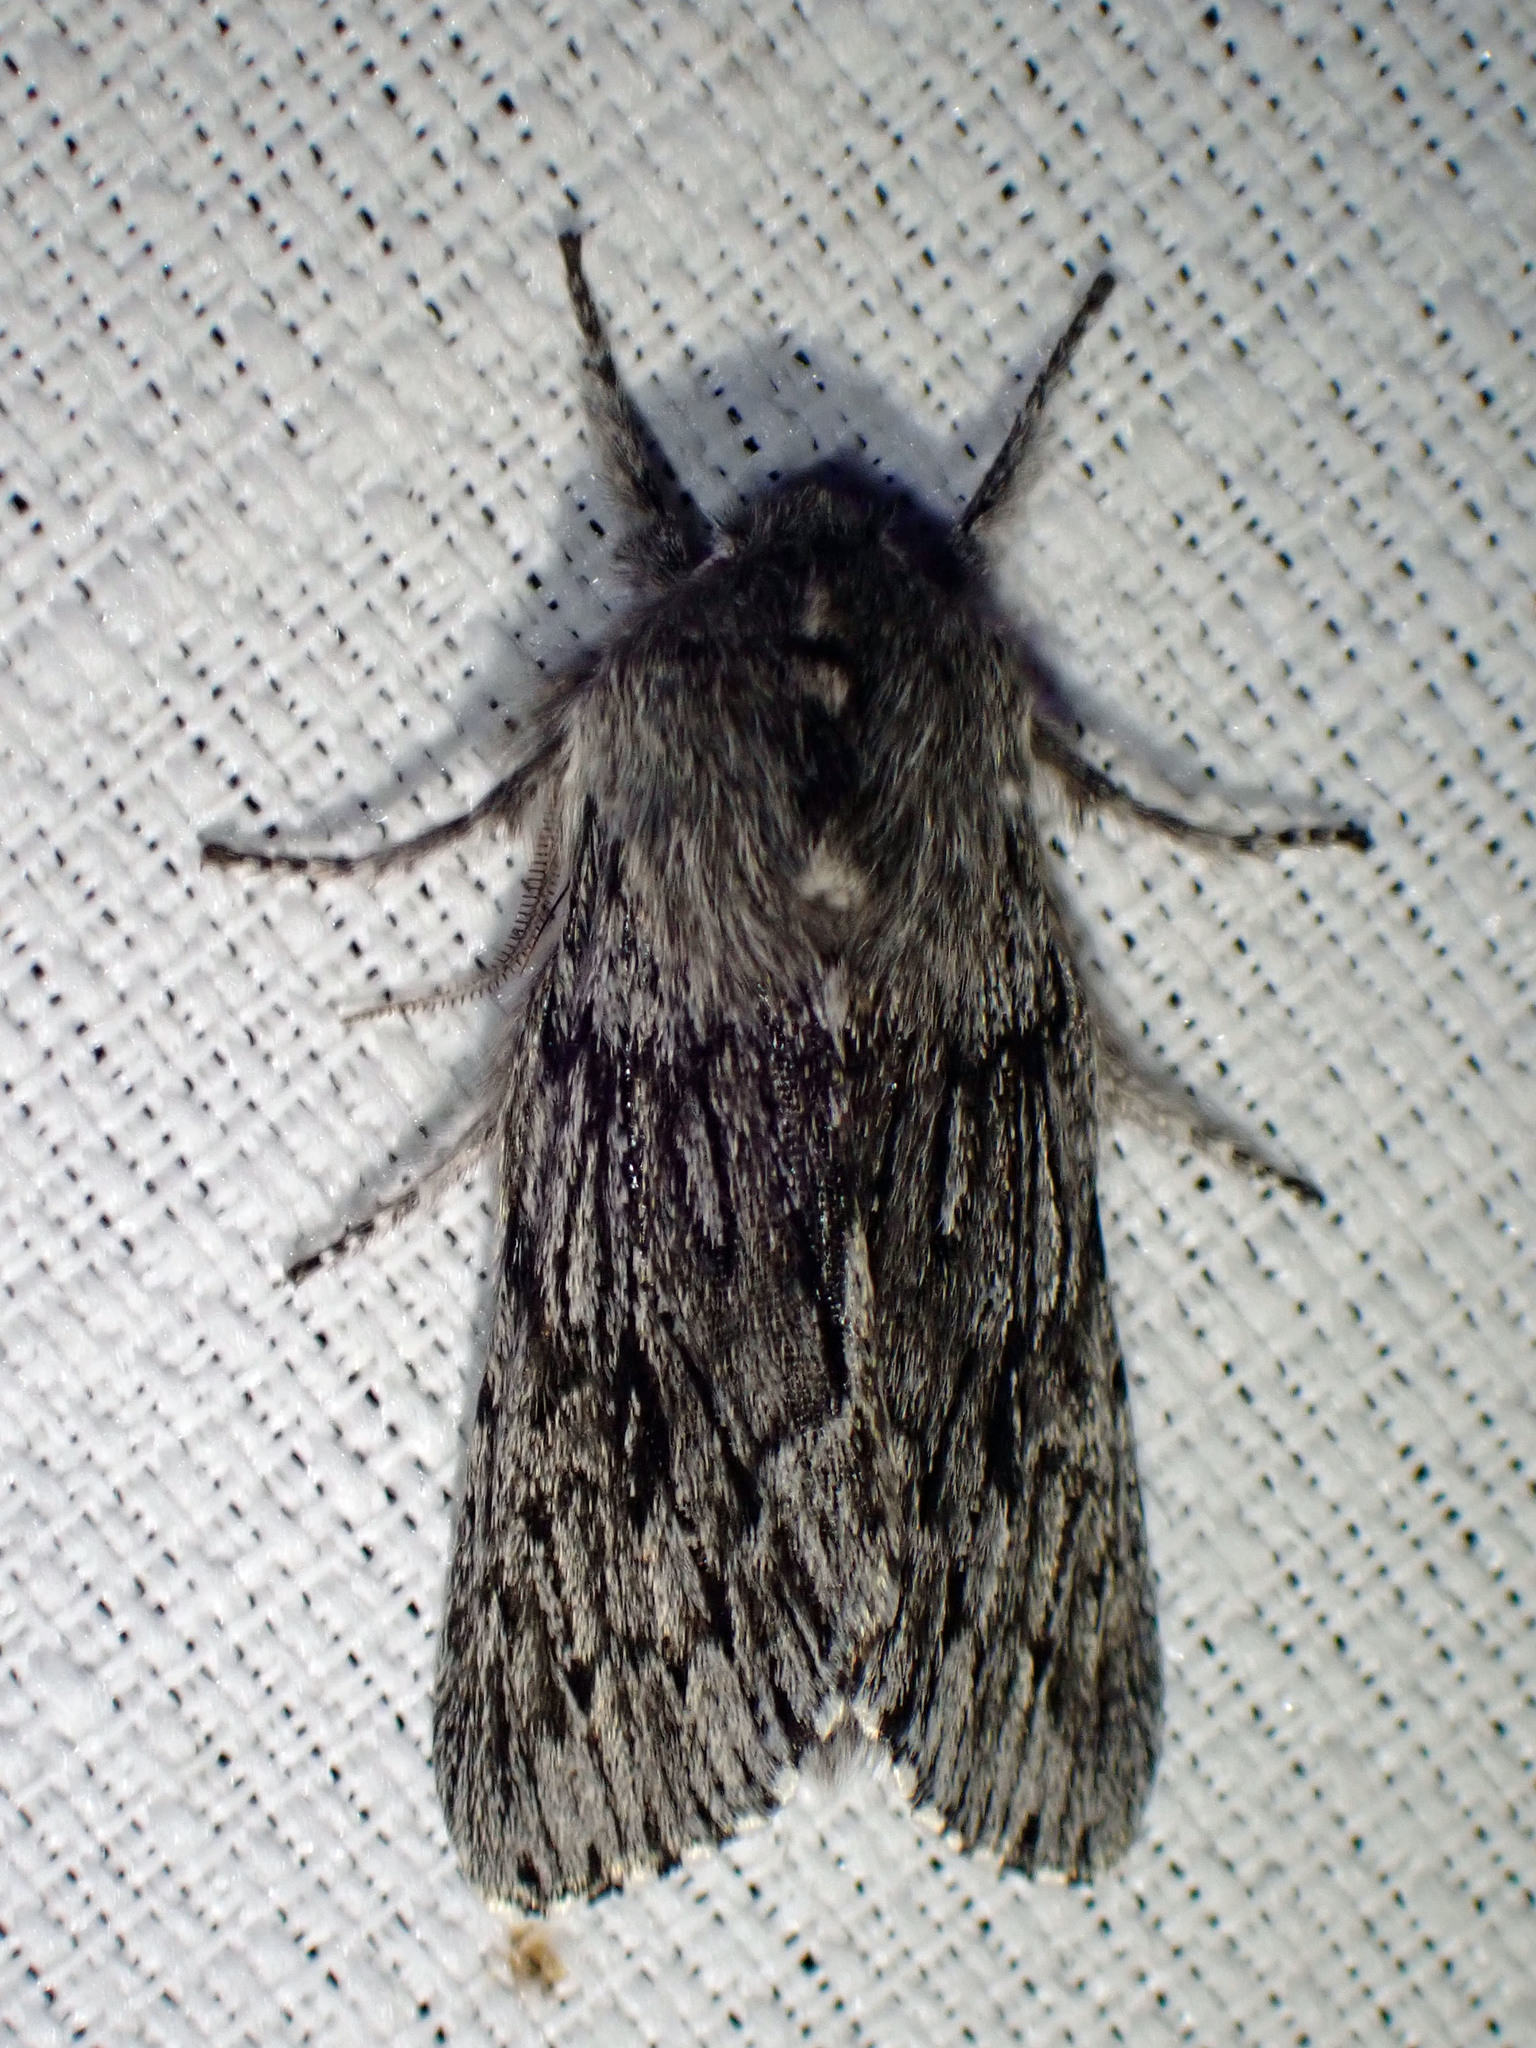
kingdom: Animalia
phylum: Arthropoda
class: Insecta
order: Lepidoptera
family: Noctuidae
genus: Brachionycha
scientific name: Brachionycha borealis
